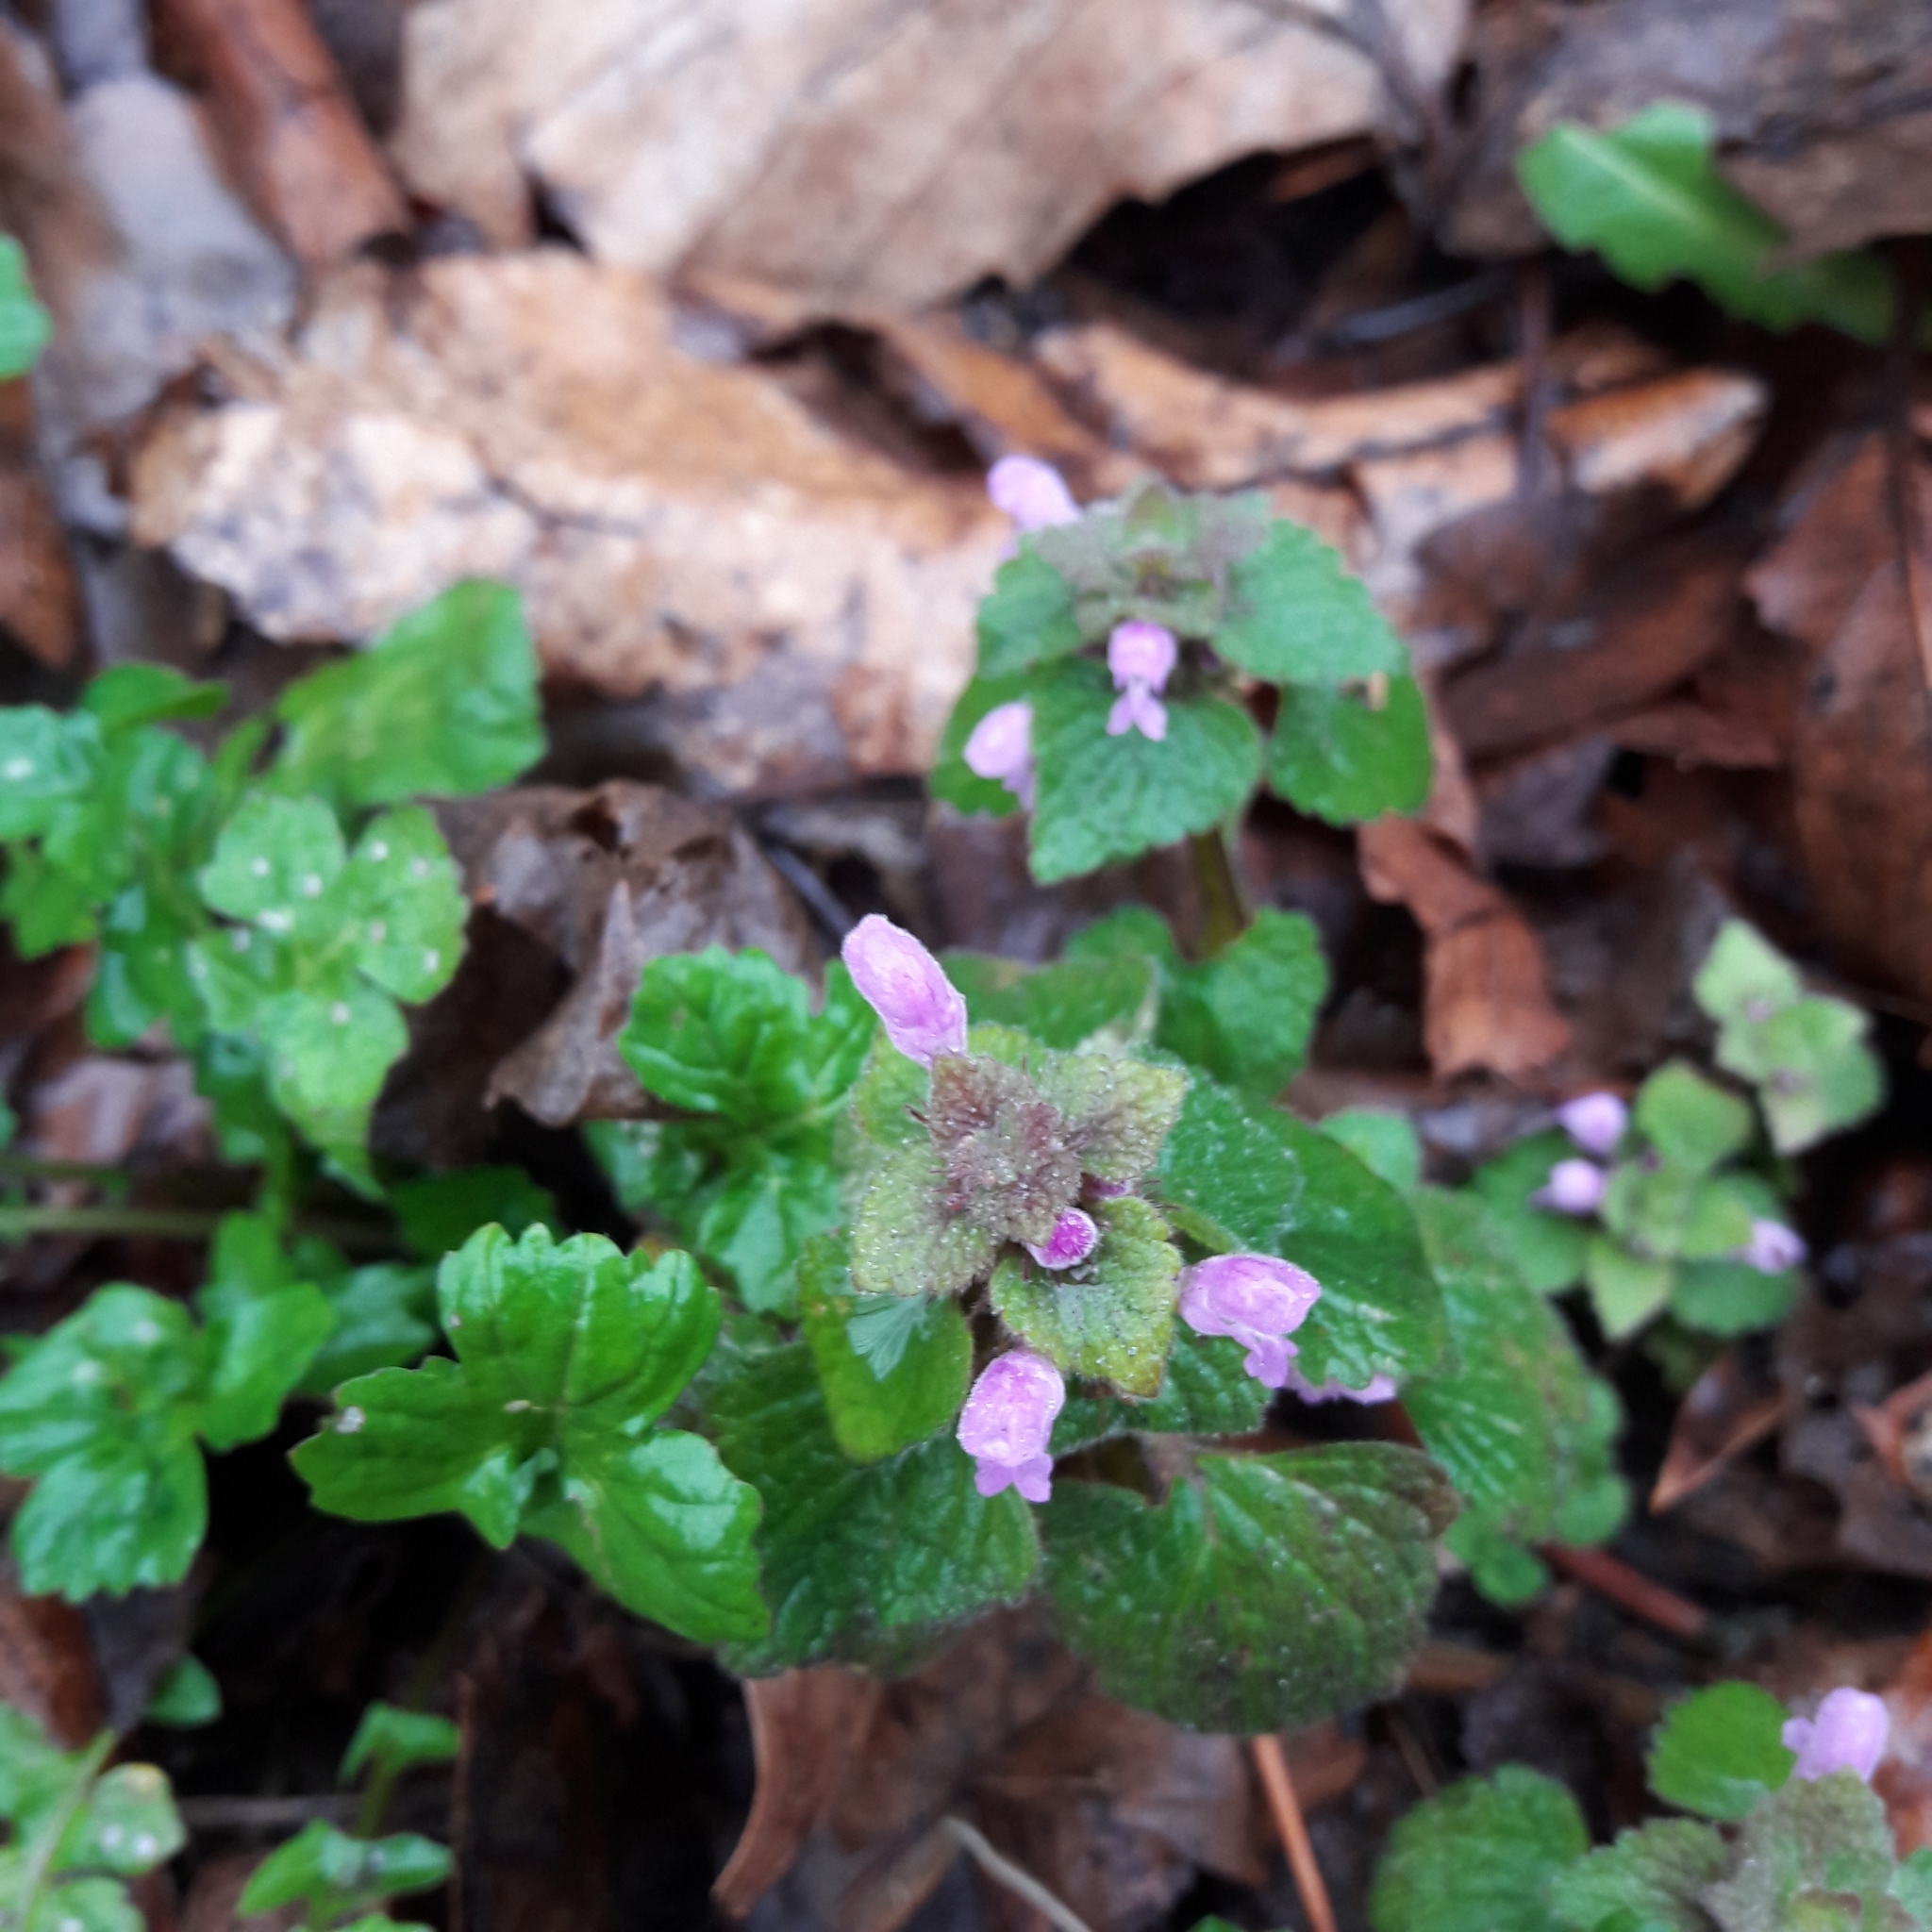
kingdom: Plantae
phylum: Tracheophyta
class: Magnoliopsida
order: Lamiales
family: Lamiaceae
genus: Lamium
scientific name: Lamium purpureum
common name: Red dead-nettle
